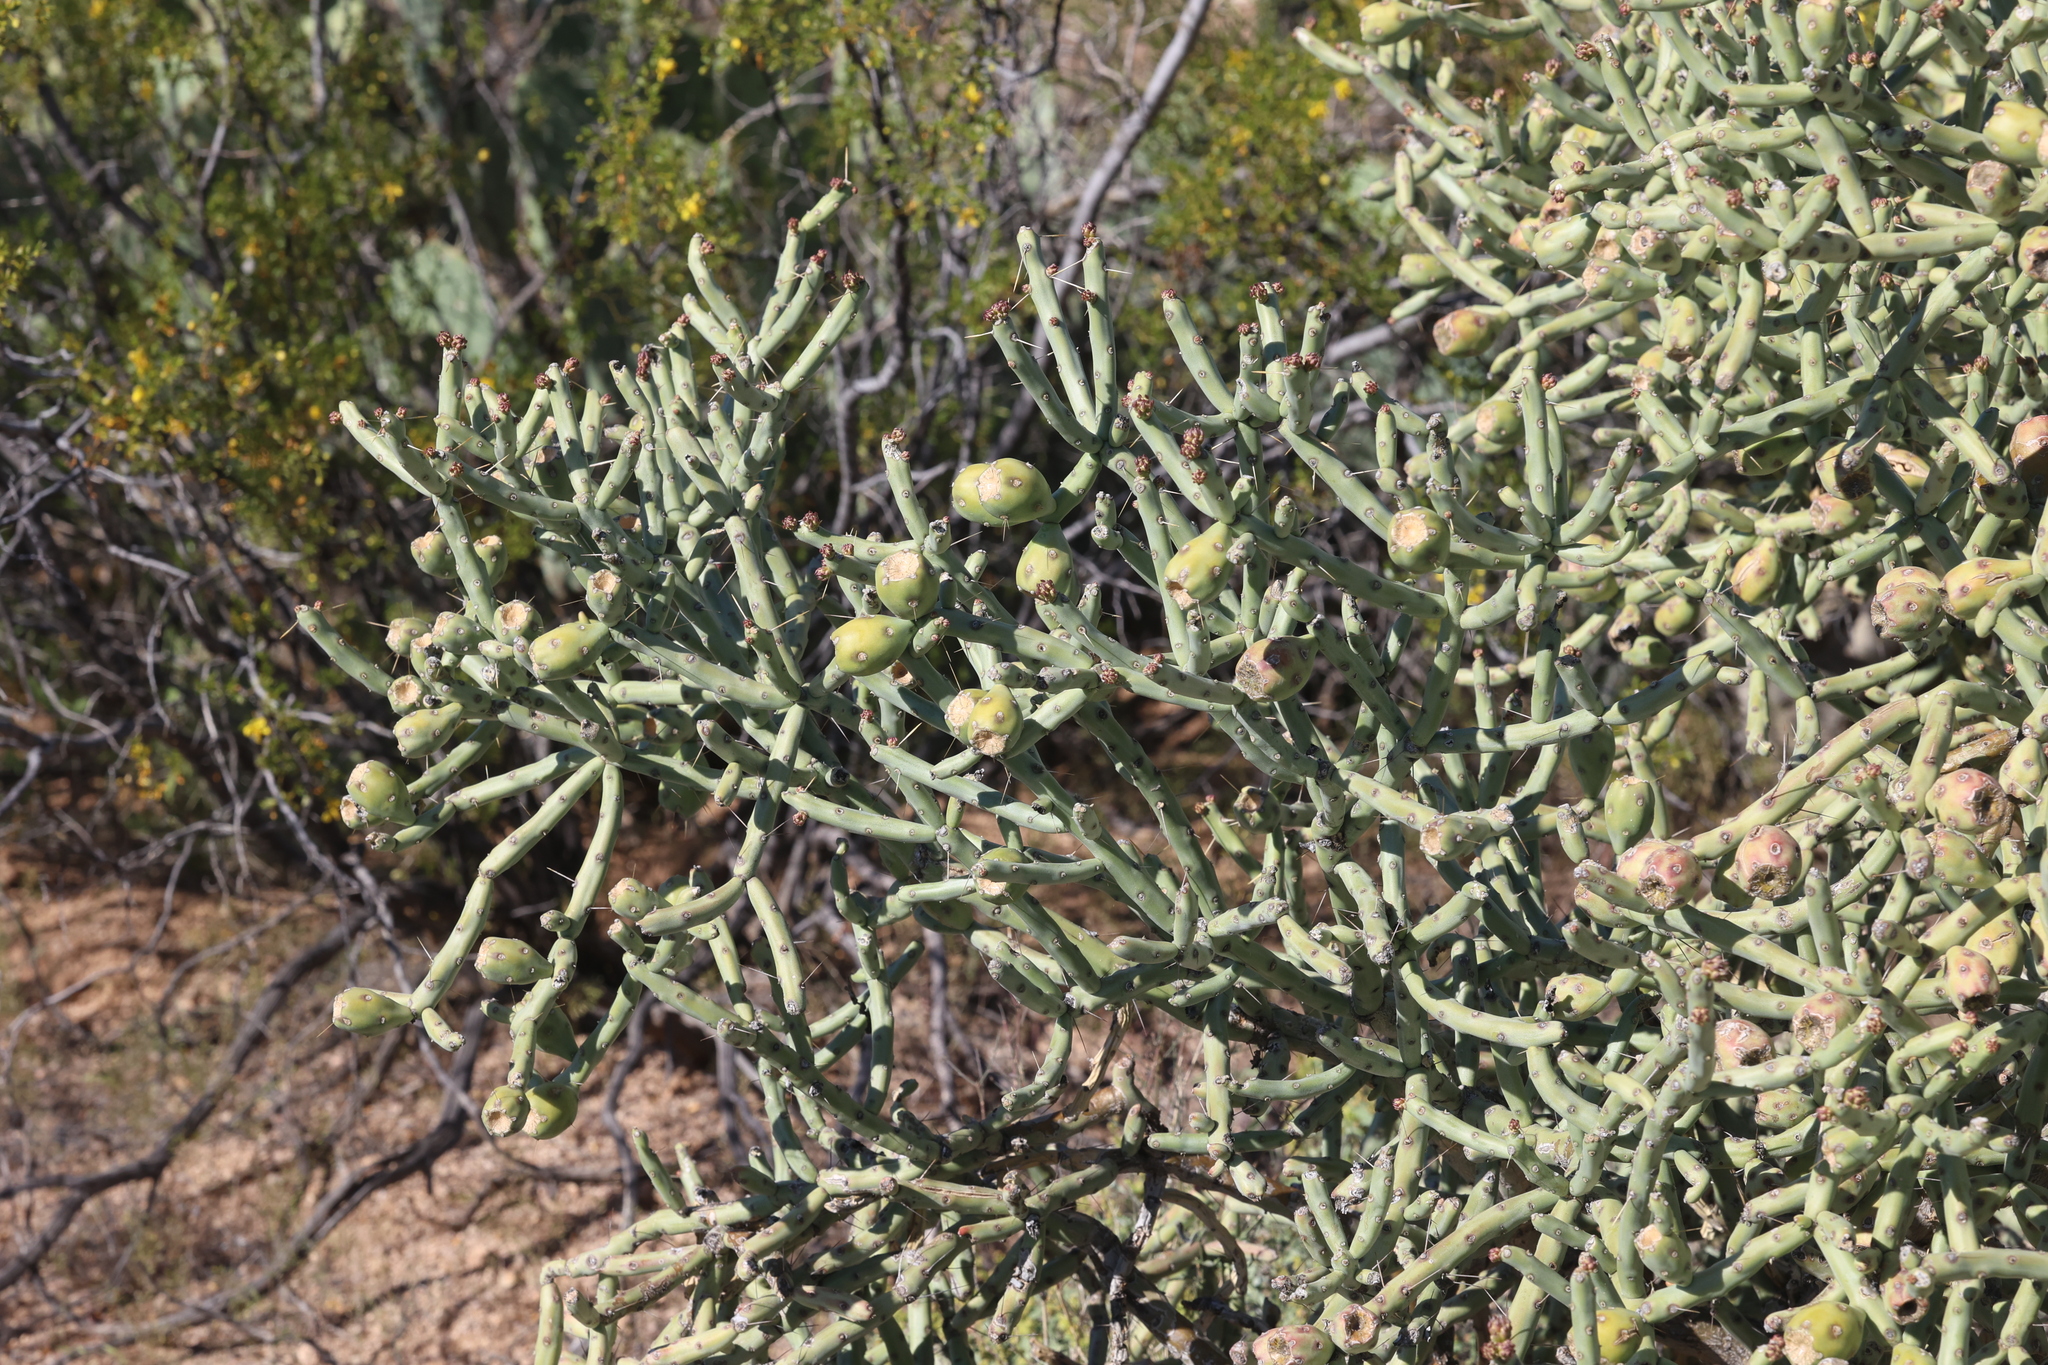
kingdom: Plantae
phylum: Tracheophyta
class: Magnoliopsida
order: Caryophyllales
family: Cactaceae
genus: Cylindropuntia
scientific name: Cylindropuntia arbuscula
